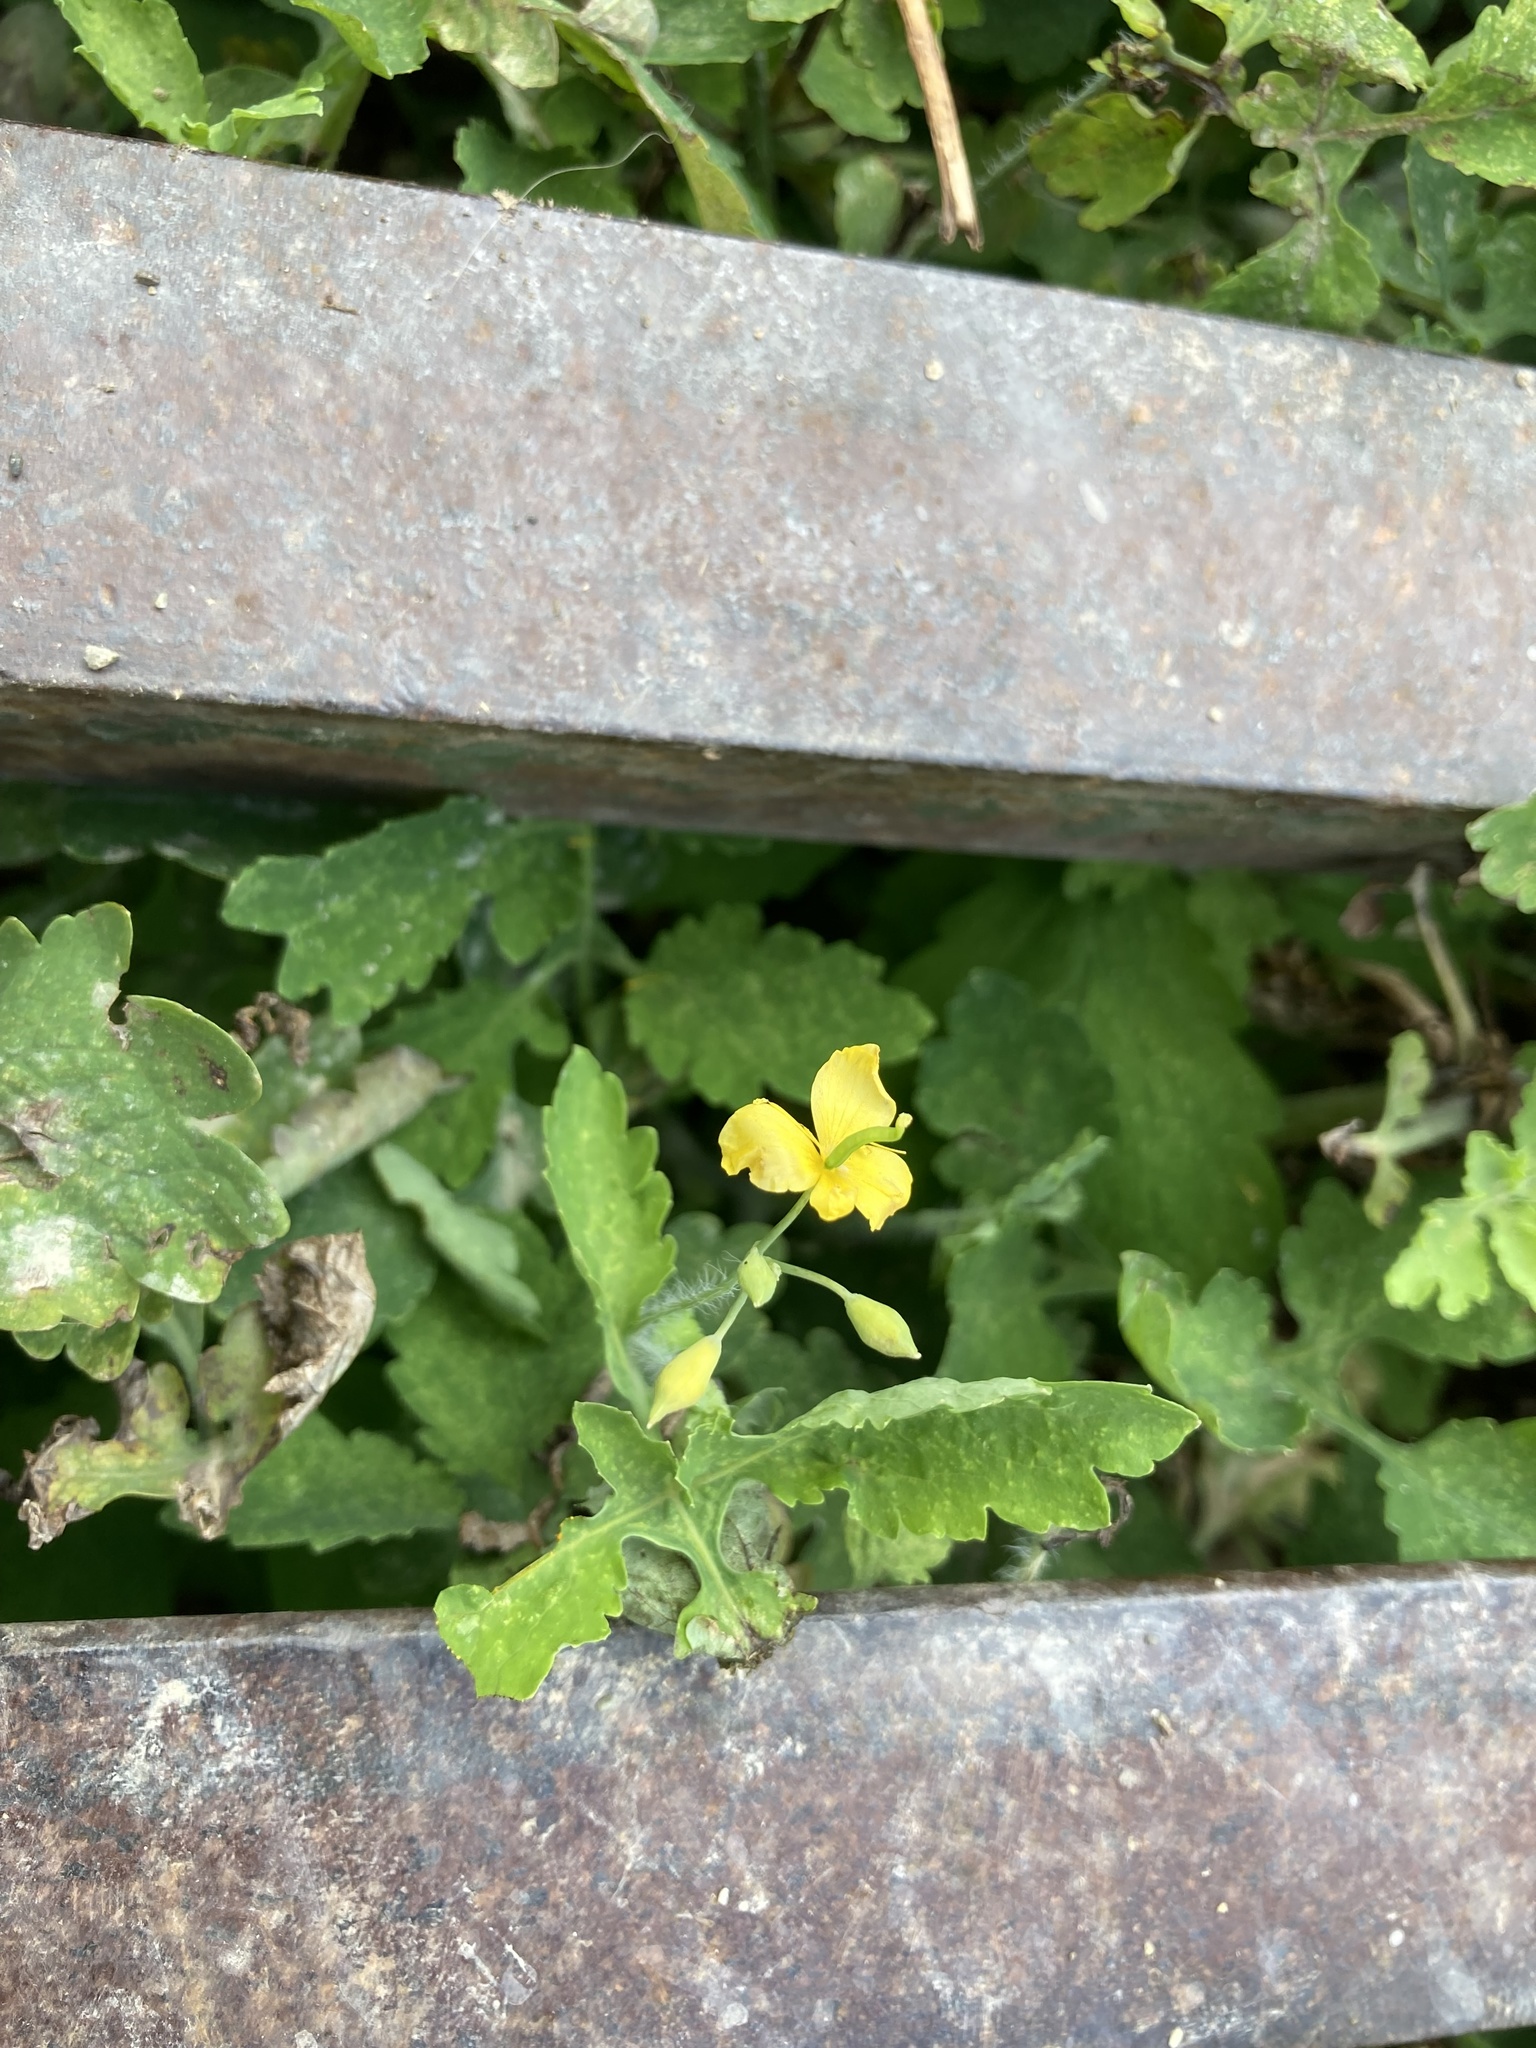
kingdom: Plantae
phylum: Tracheophyta
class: Magnoliopsida
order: Ranunculales
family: Papaveraceae
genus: Chelidonium
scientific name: Chelidonium majus
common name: Greater celandine
